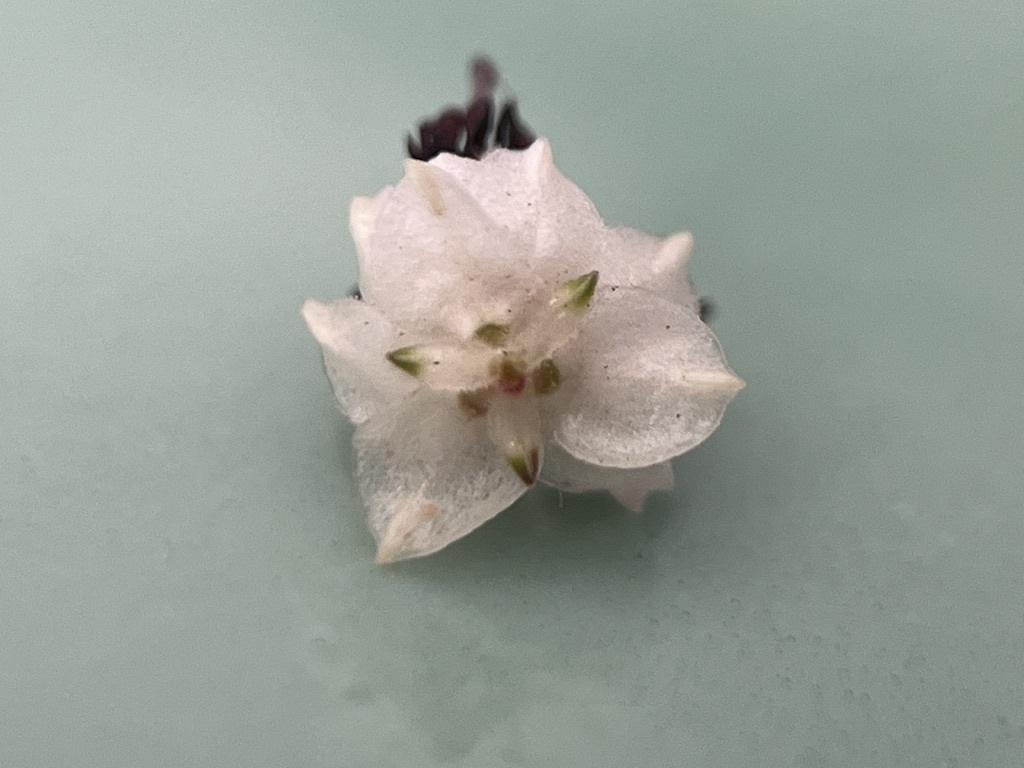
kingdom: Plantae
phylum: Tracheophyta
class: Magnoliopsida
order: Ericales
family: Ericaceae
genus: Erica
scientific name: Erica azaleifolia
